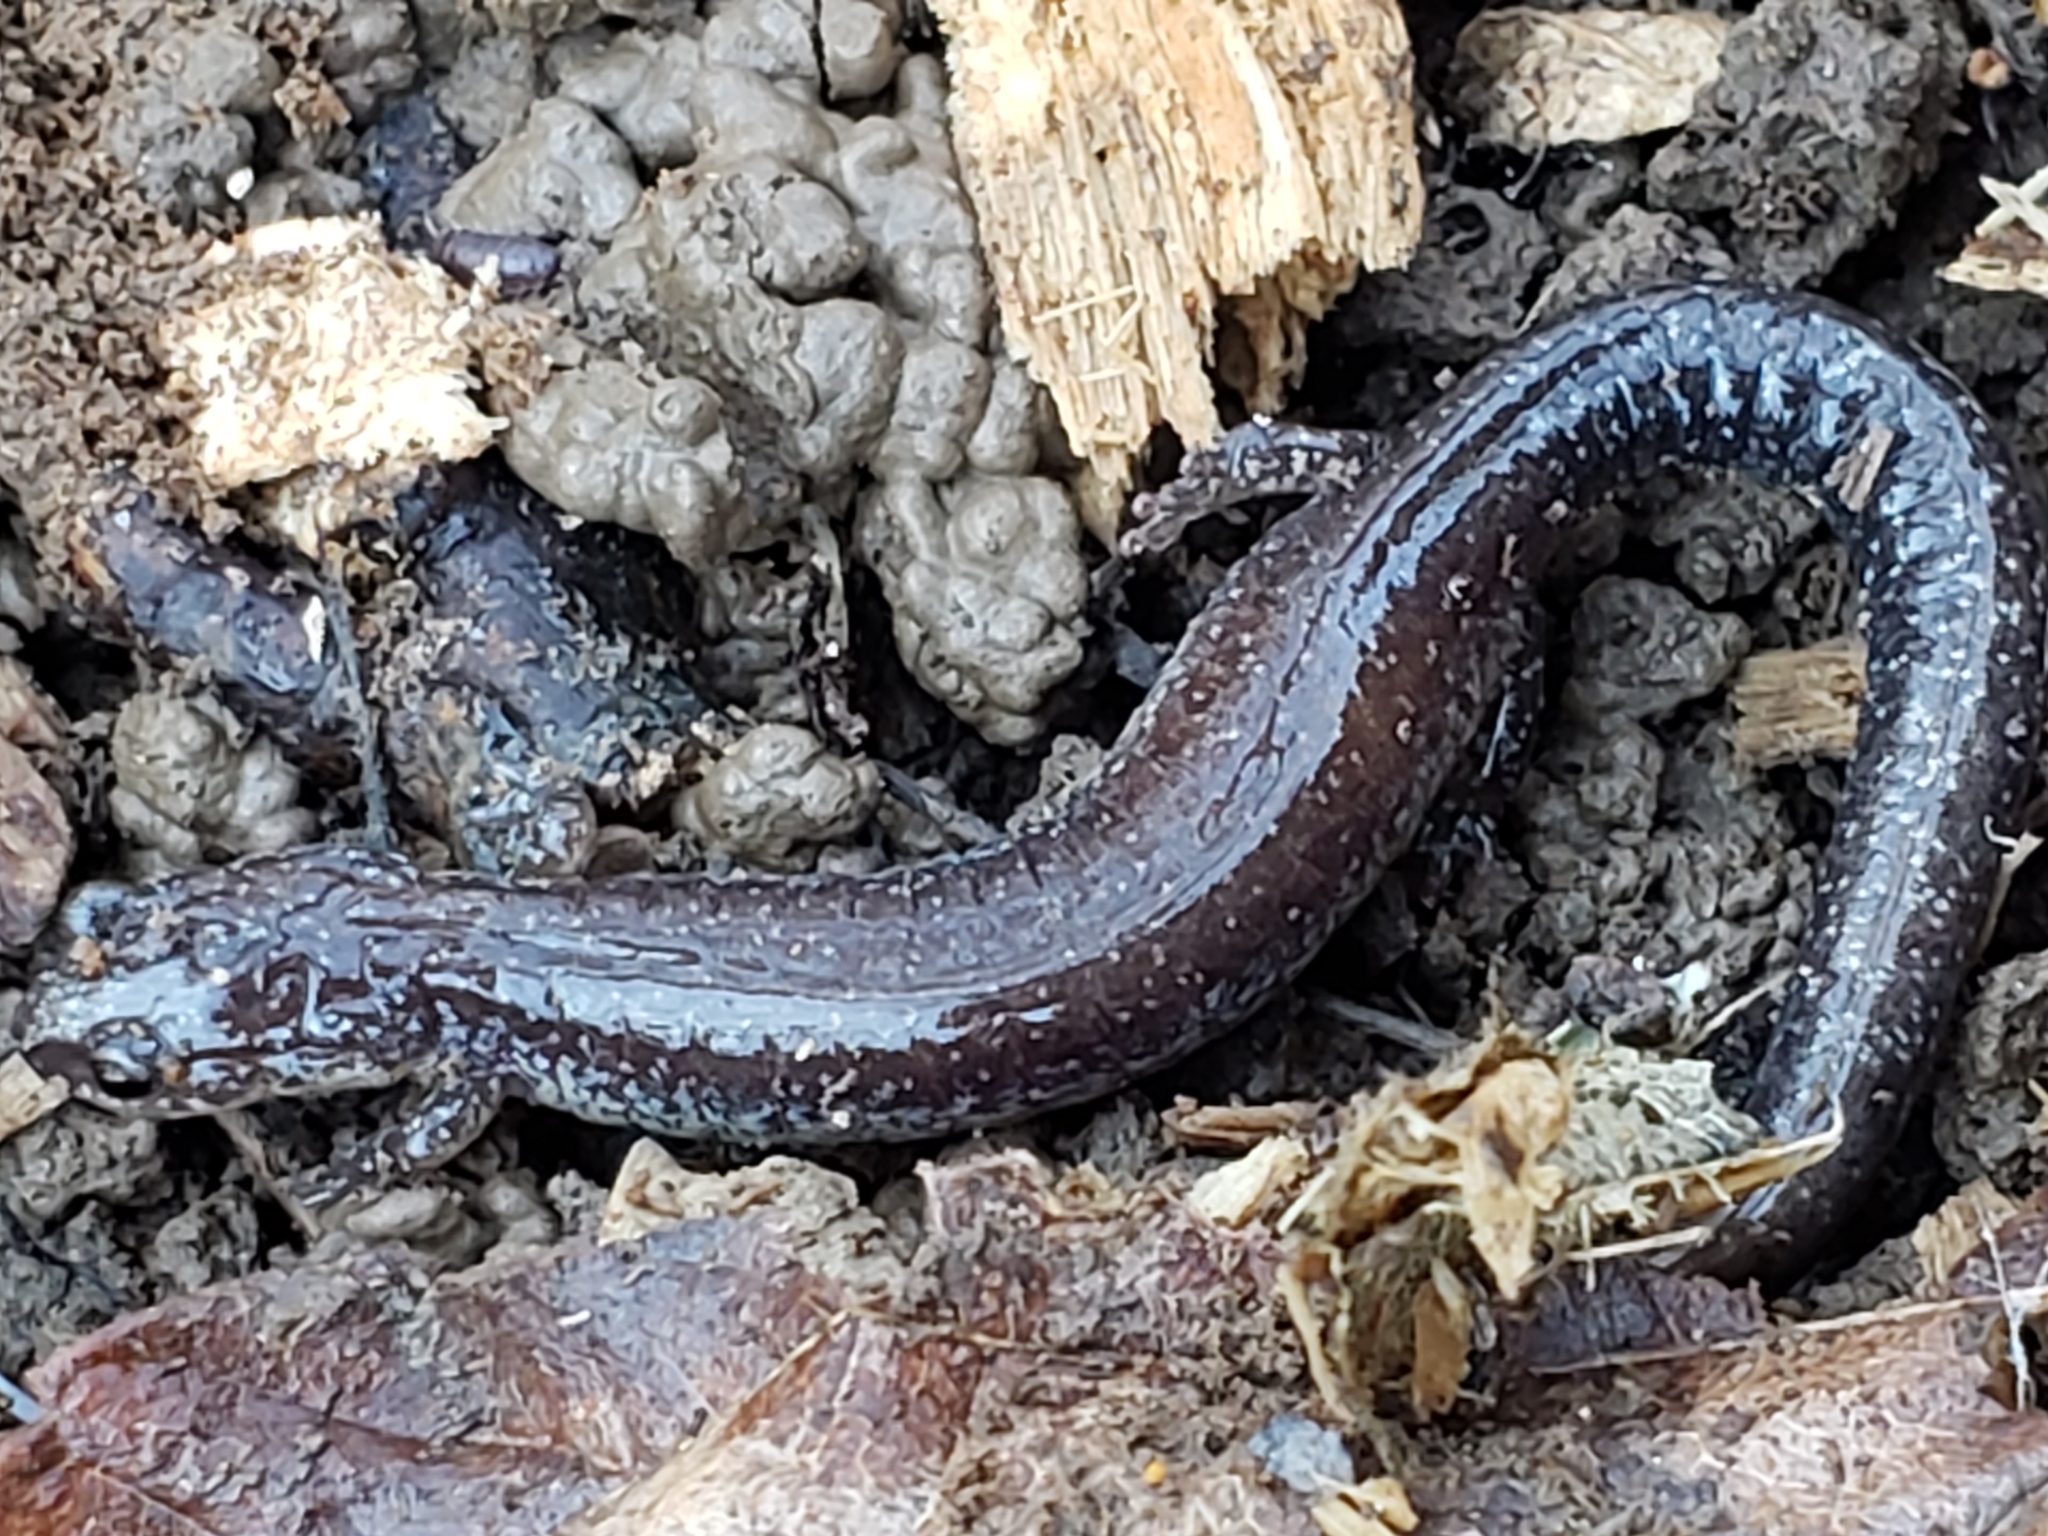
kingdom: Animalia
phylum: Chordata
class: Amphibia
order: Caudata
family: Plethodontidae
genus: Plethodon
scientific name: Plethodon cinereus
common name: Redback salamander
